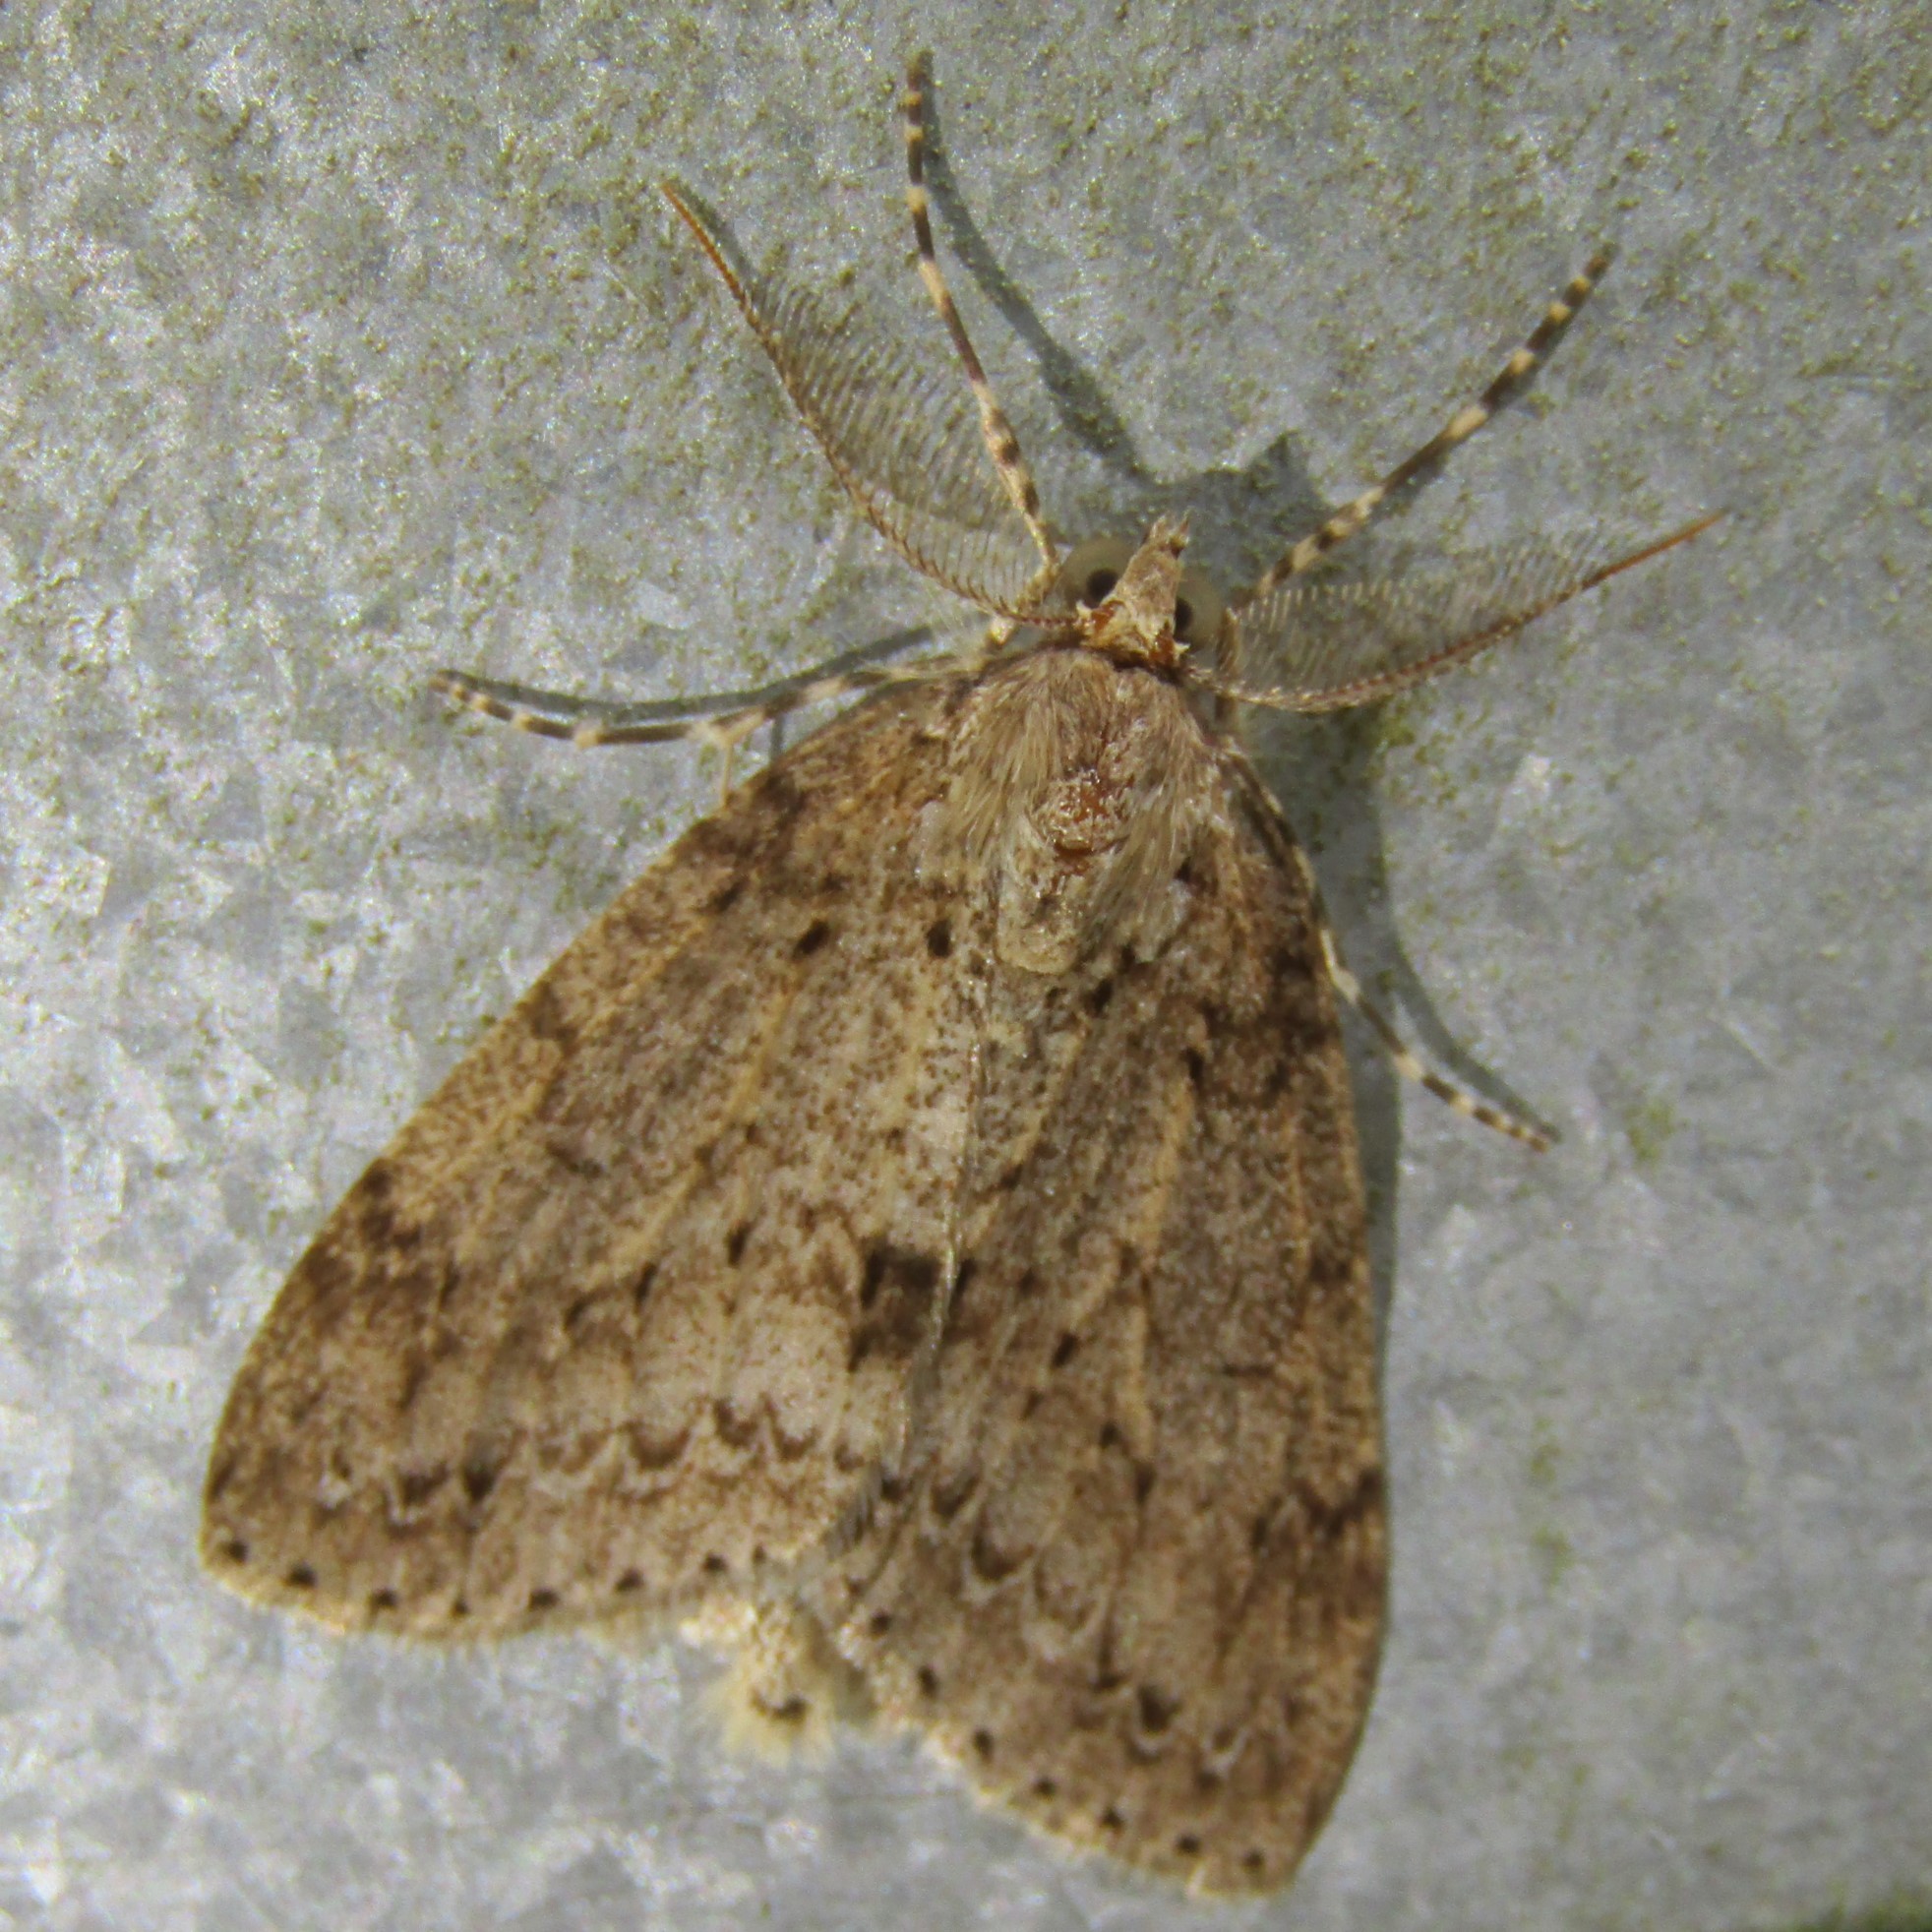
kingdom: Animalia
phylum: Arthropoda
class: Insecta
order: Lepidoptera
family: Geometridae
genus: Pseudocoremia
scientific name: Pseudocoremia fenerata
